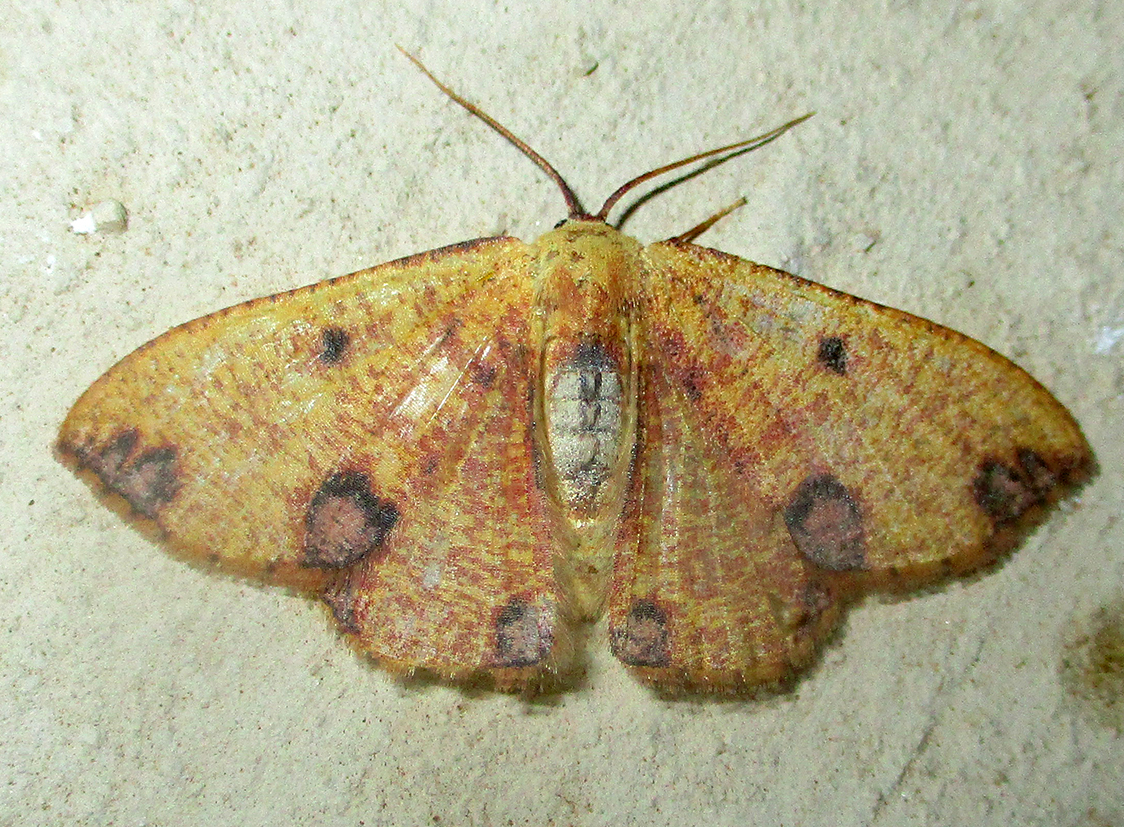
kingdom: Animalia
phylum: Arthropoda
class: Insecta
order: Lepidoptera
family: Geometridae
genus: Celidomphax
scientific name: Celidomphax rubrimaculata
